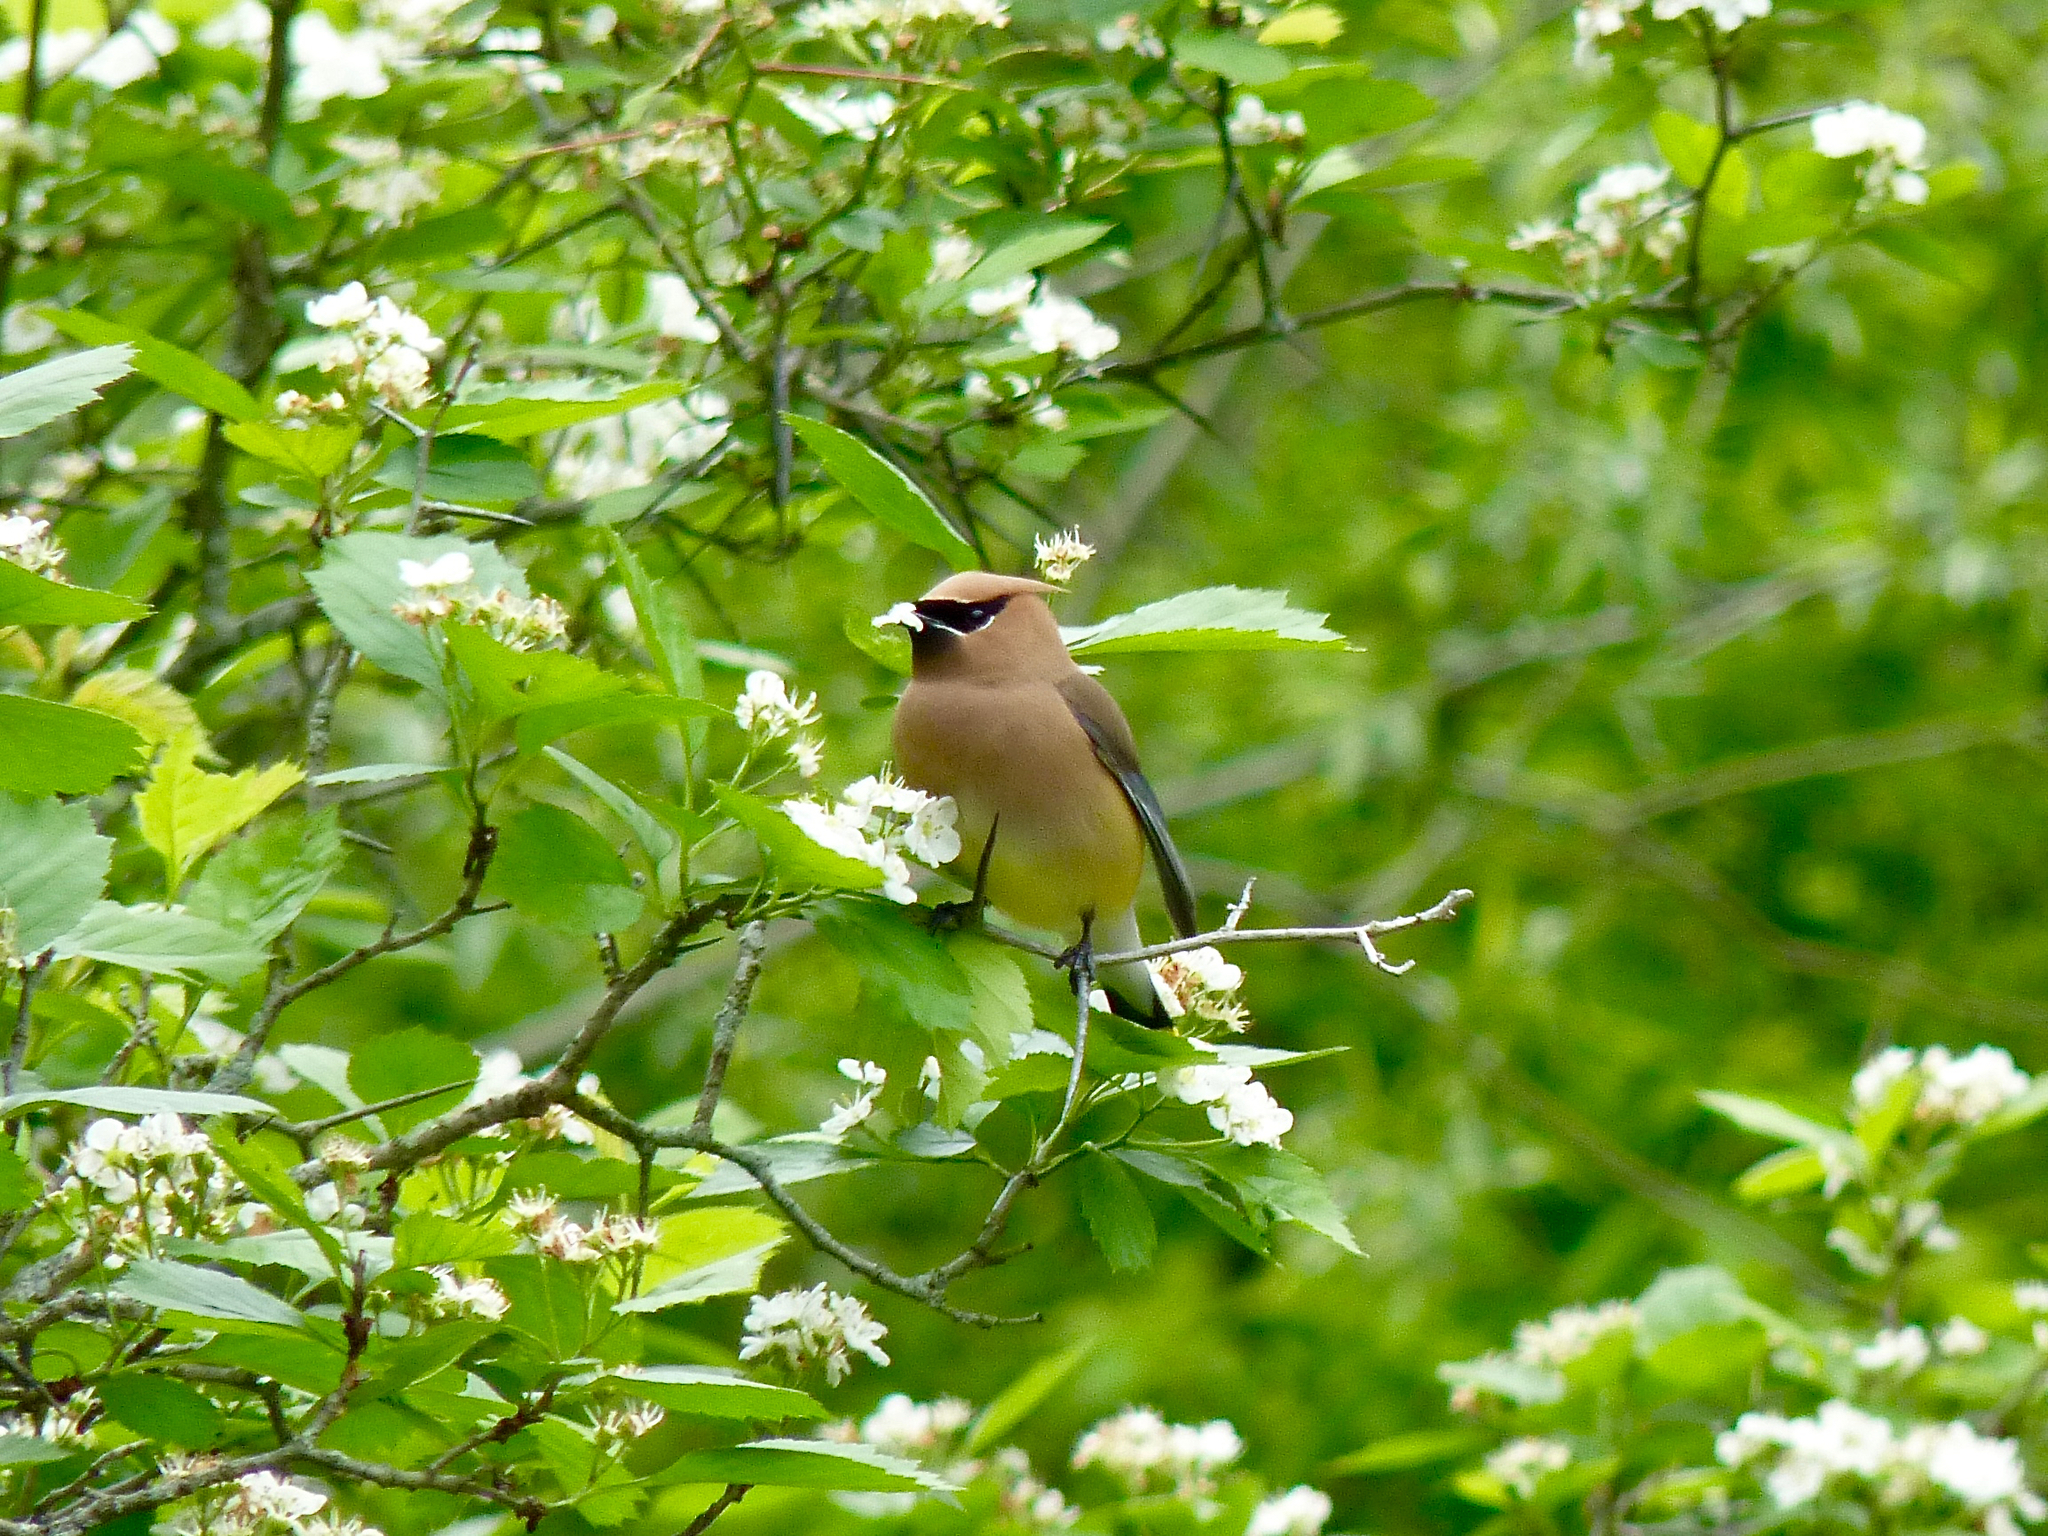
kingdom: Animalia
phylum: Chordata
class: Aves
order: Passeriformes
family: Bombycillidae
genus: Bombycilla
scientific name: Bombycilla cedrorum
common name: Cedar waxwing
